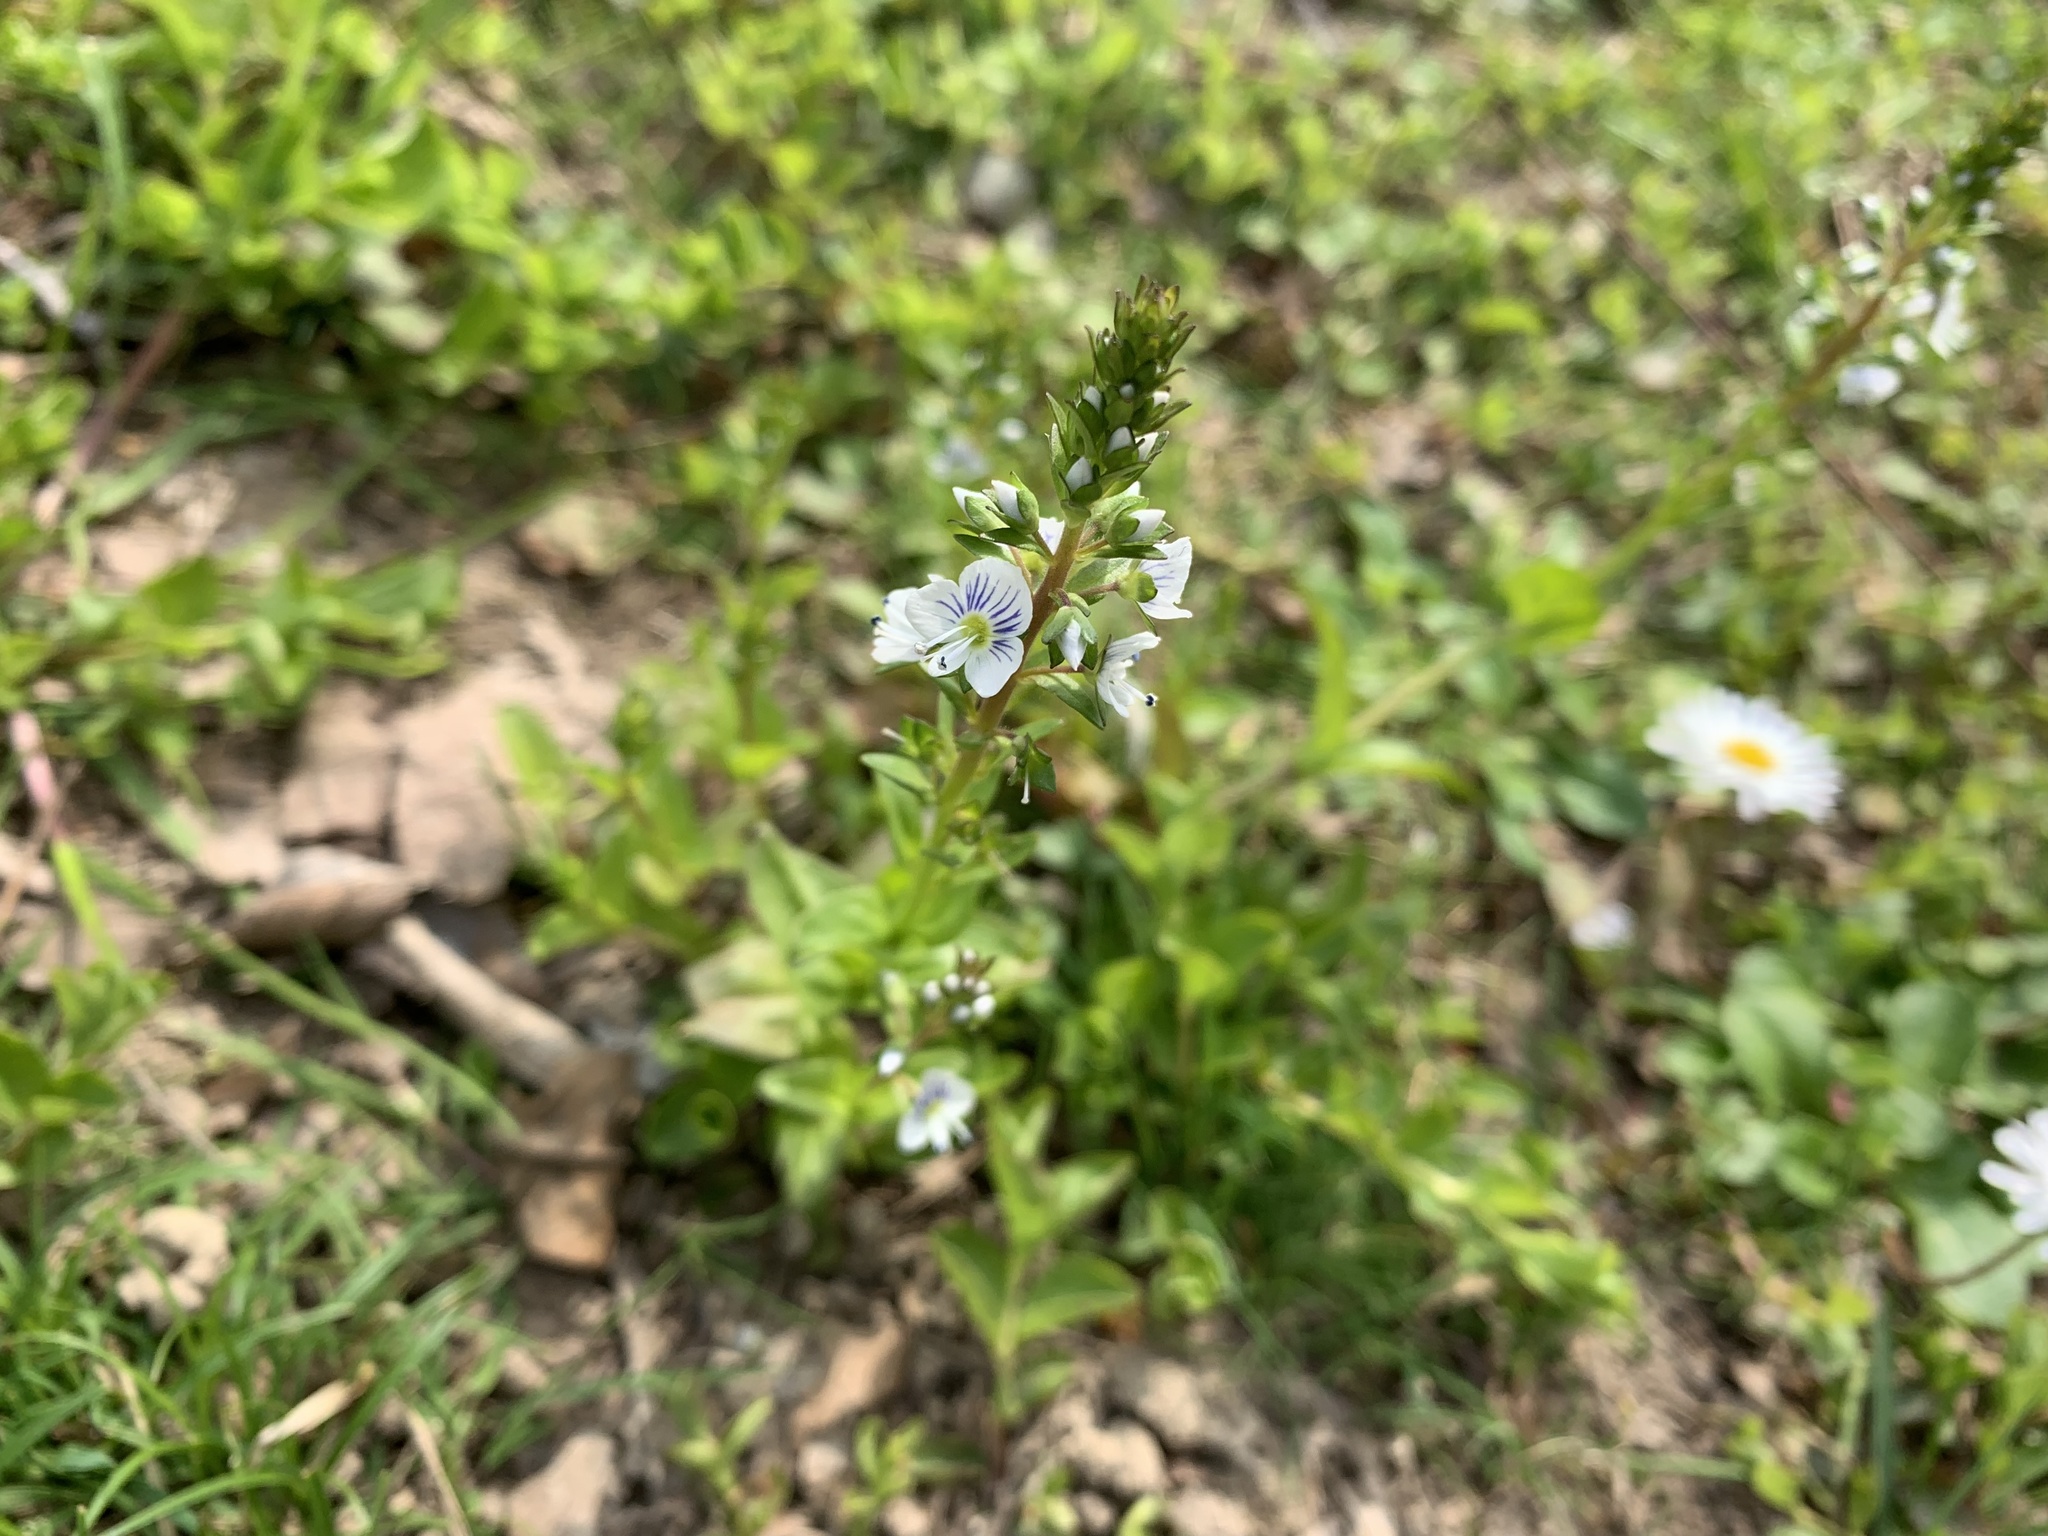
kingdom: Plantae
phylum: Tracheophyta
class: Magnoliopsida
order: Lamiales
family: Plantaginaceae
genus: Veronica
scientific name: Veronica serpyllifolia
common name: Thyme-leaved speedwell
